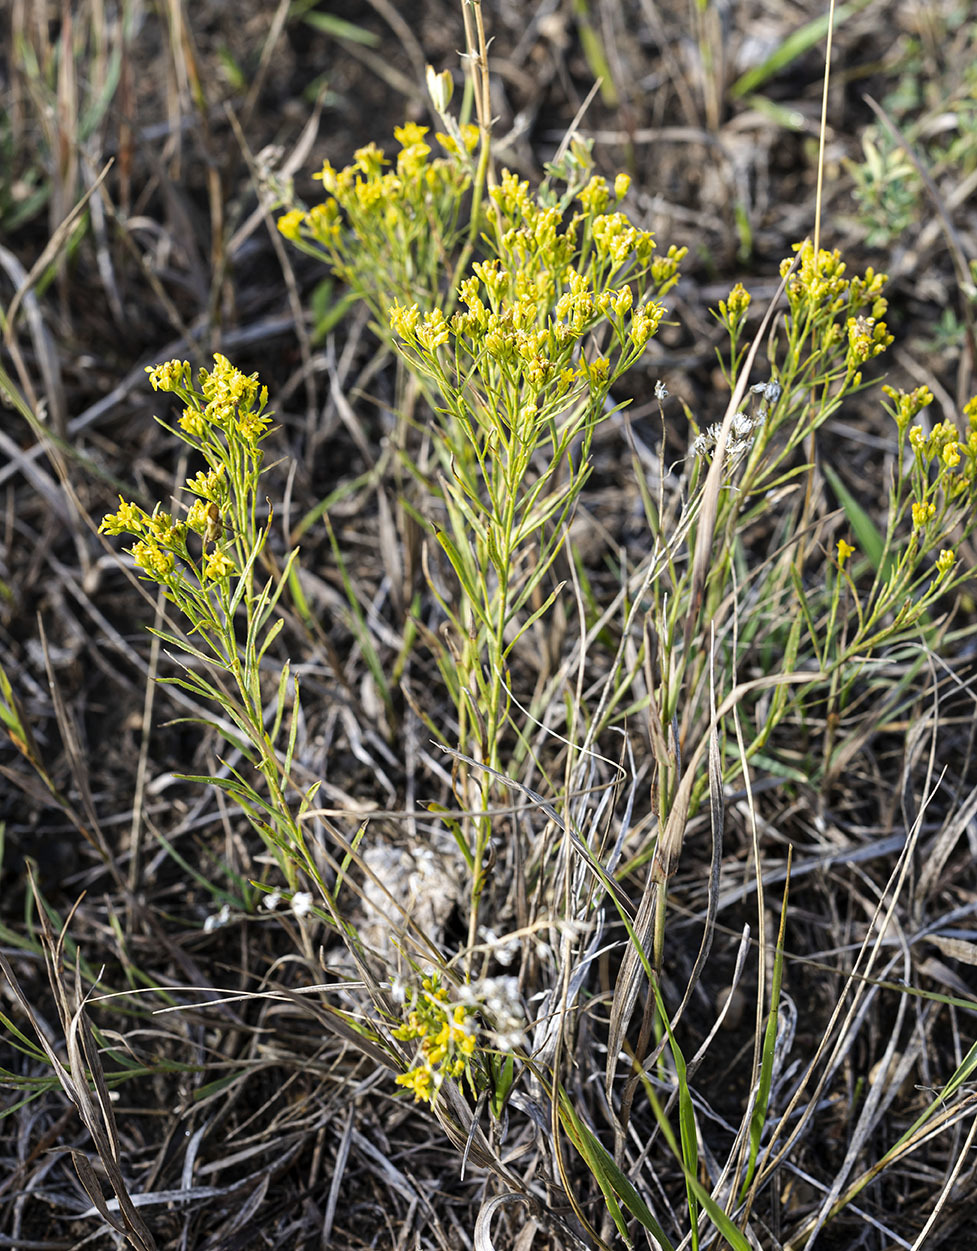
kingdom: Plantae
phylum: Tracheophyta
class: Magnoliopsida
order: Asterales
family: Asteraceae
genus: Gutierrezia
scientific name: Gutierrezia sarothrae
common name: Broom snakeweed
